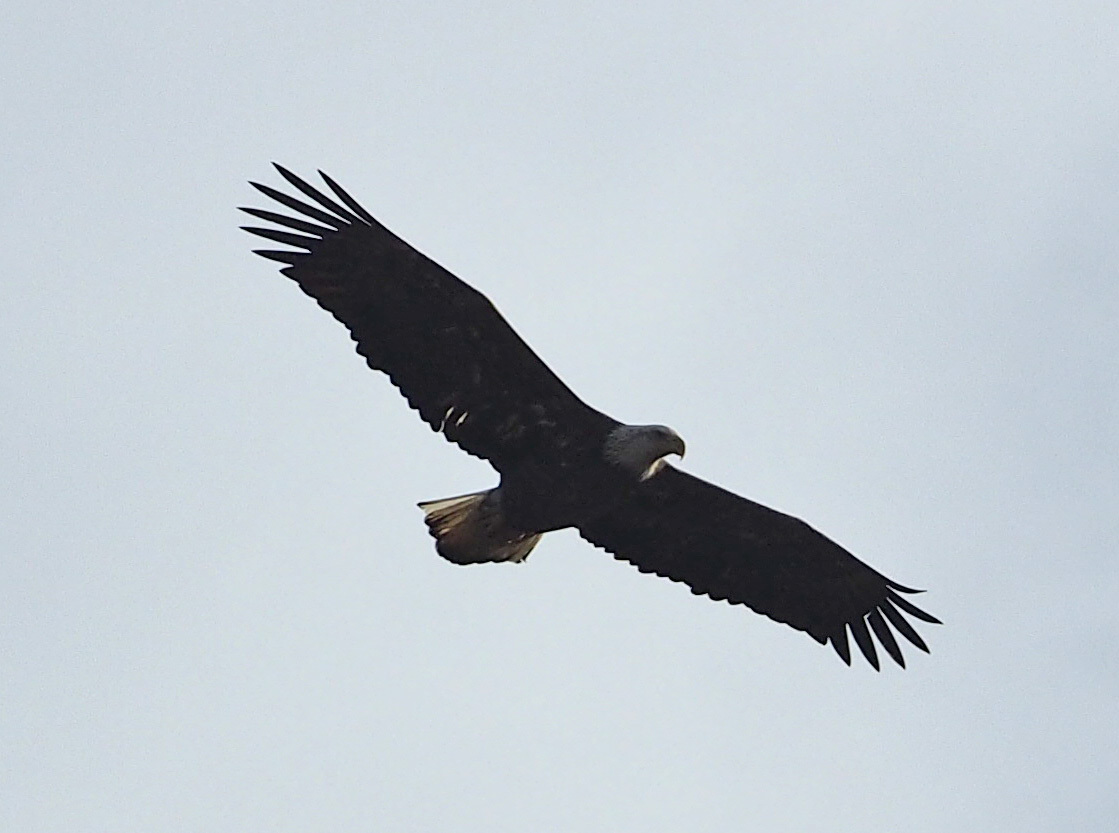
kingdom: Animalia
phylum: Chordata
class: Aves
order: Accipitriformes
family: Accipitridae
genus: Haliaeetus
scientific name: Haliaeetus leucocephalus
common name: Bald eagle
